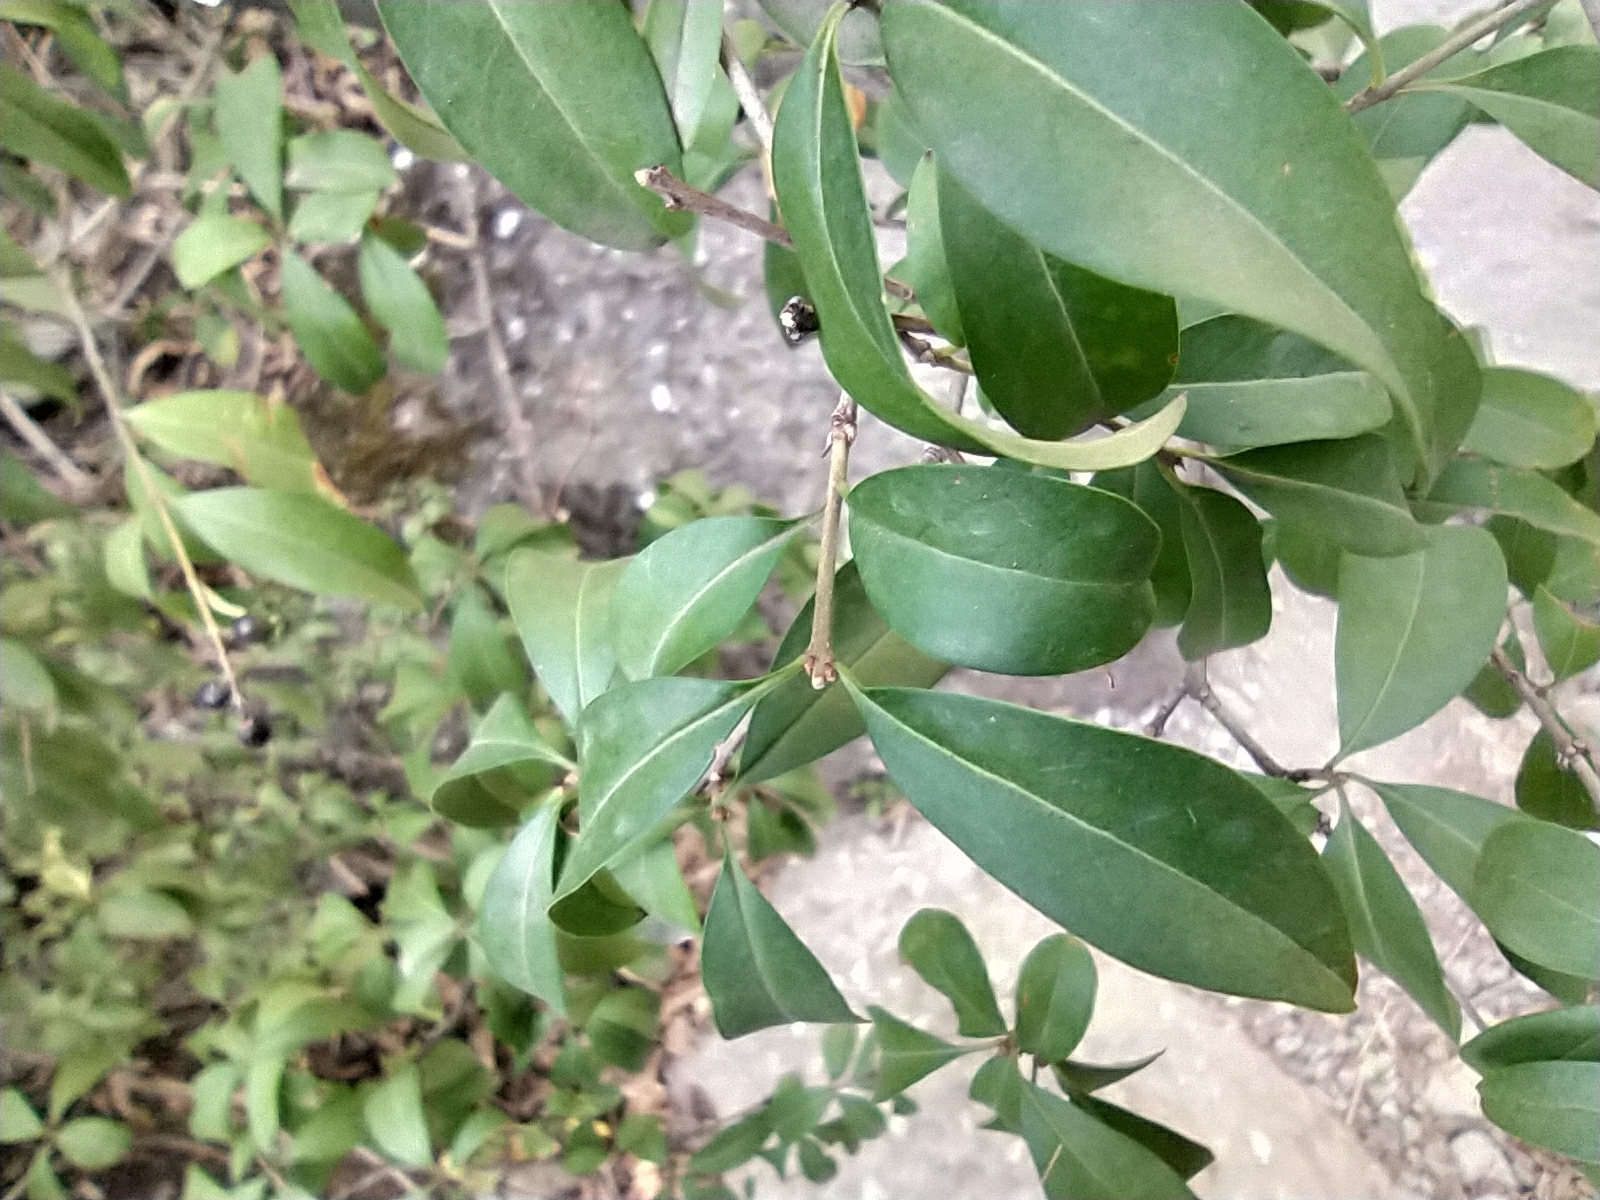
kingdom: Plantae
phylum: Tracheophyta
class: Magnoliopsida
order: Lamiales
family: Oleaceae
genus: Ligustrum
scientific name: Ligustrum vulgare
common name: Wild privet
